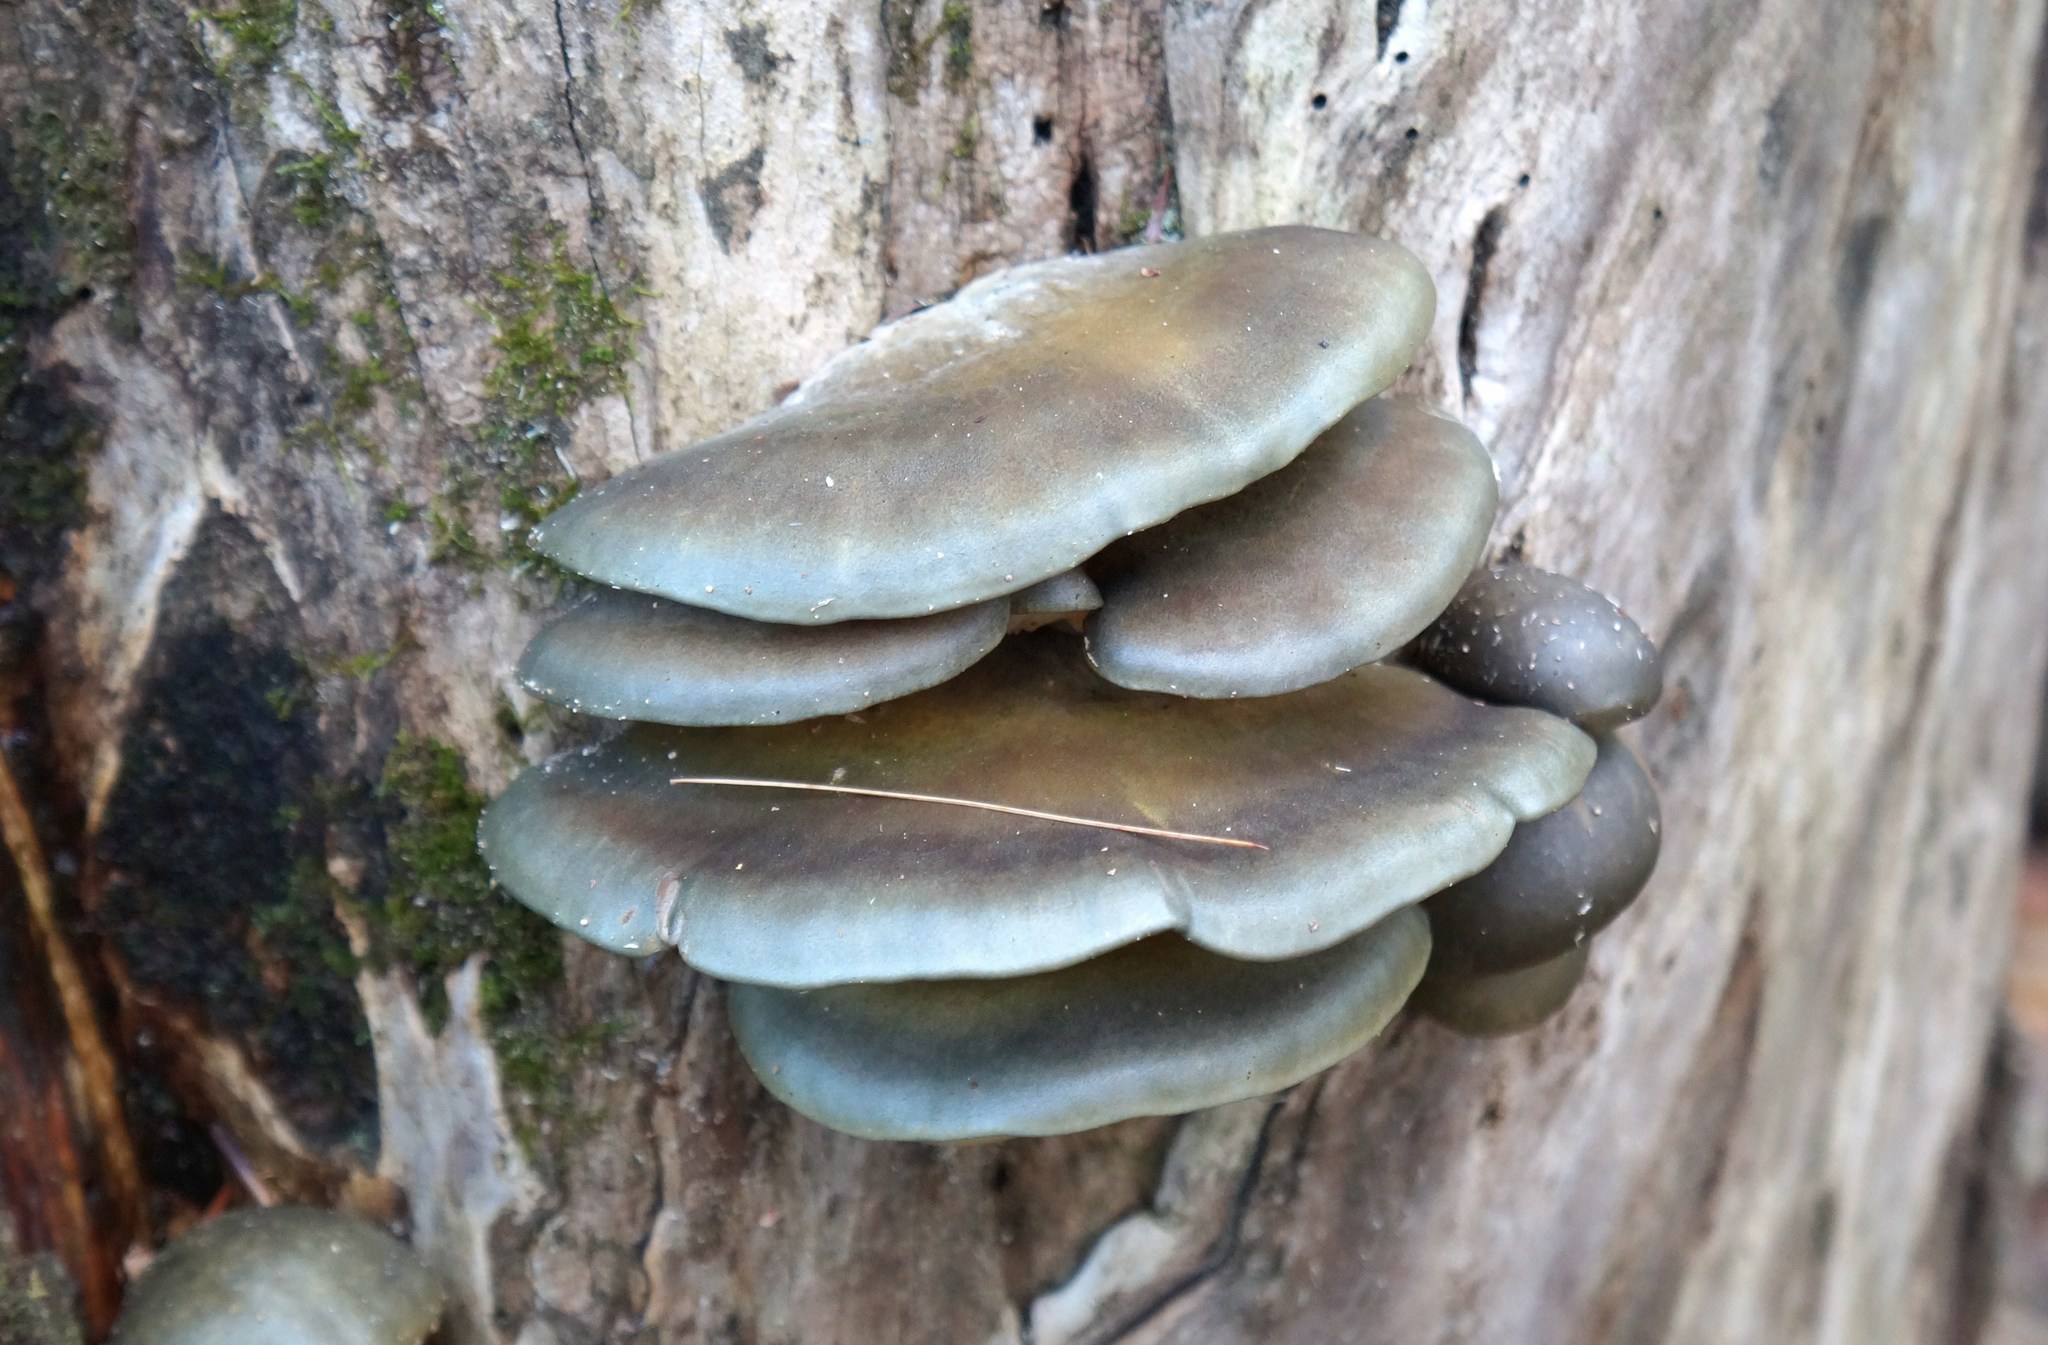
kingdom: Fungi
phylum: Basidiomycota
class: Agaricomycetes
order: Agaricales
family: Sarcomyxaceae
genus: Sarcomyxa
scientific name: Sarcomyxa serotina
